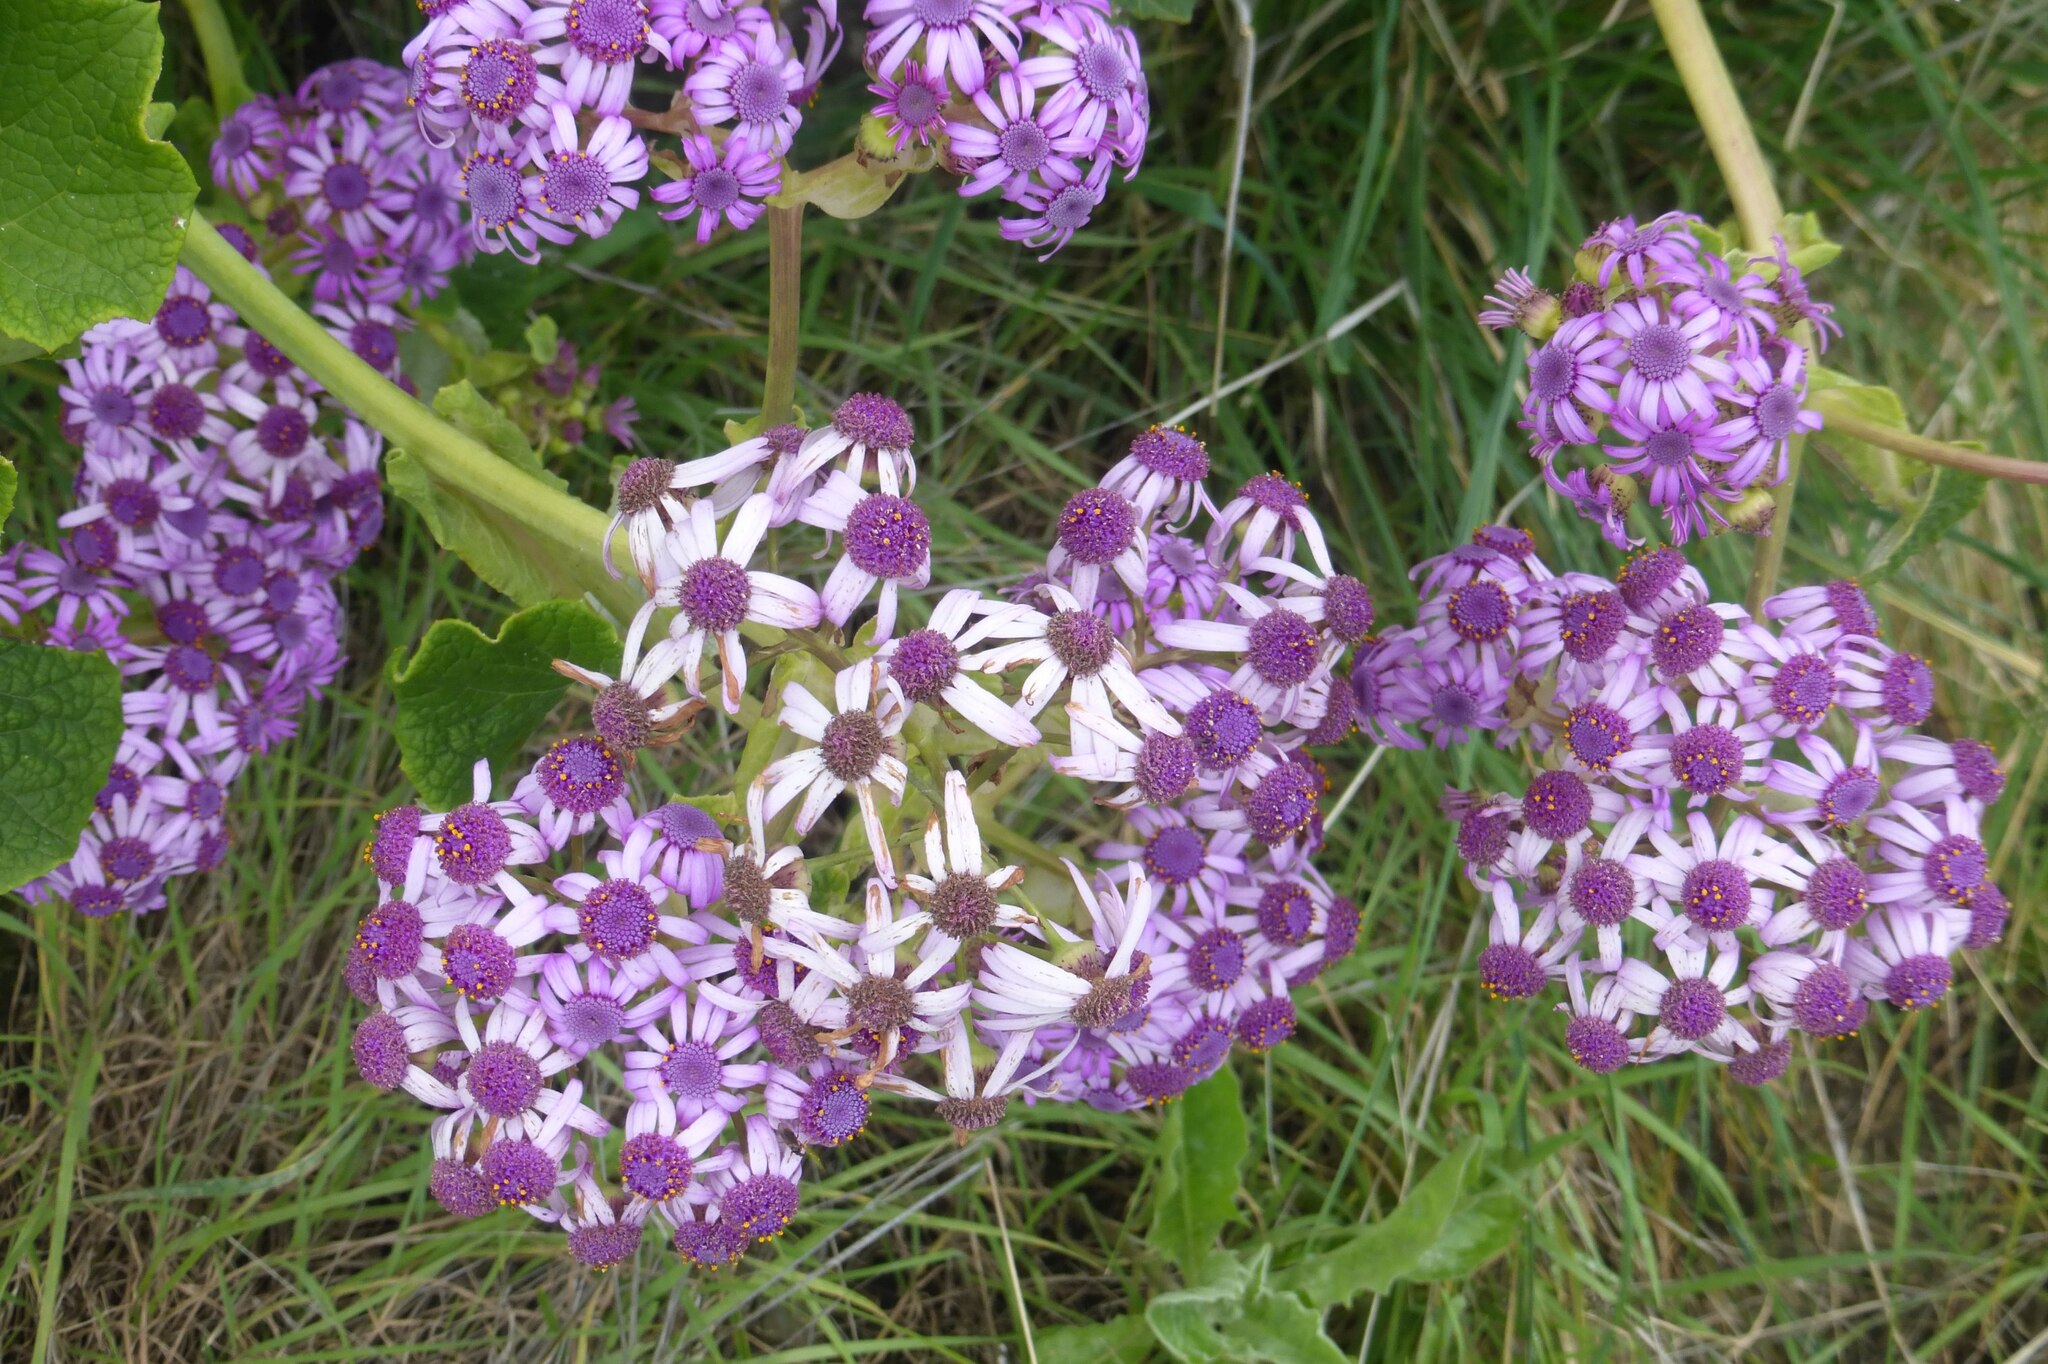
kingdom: Plantae
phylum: Tracheophyta
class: Magnoliopsida
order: Asterales
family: Asteraceae
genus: Pericallis
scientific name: Pericallis webbii
